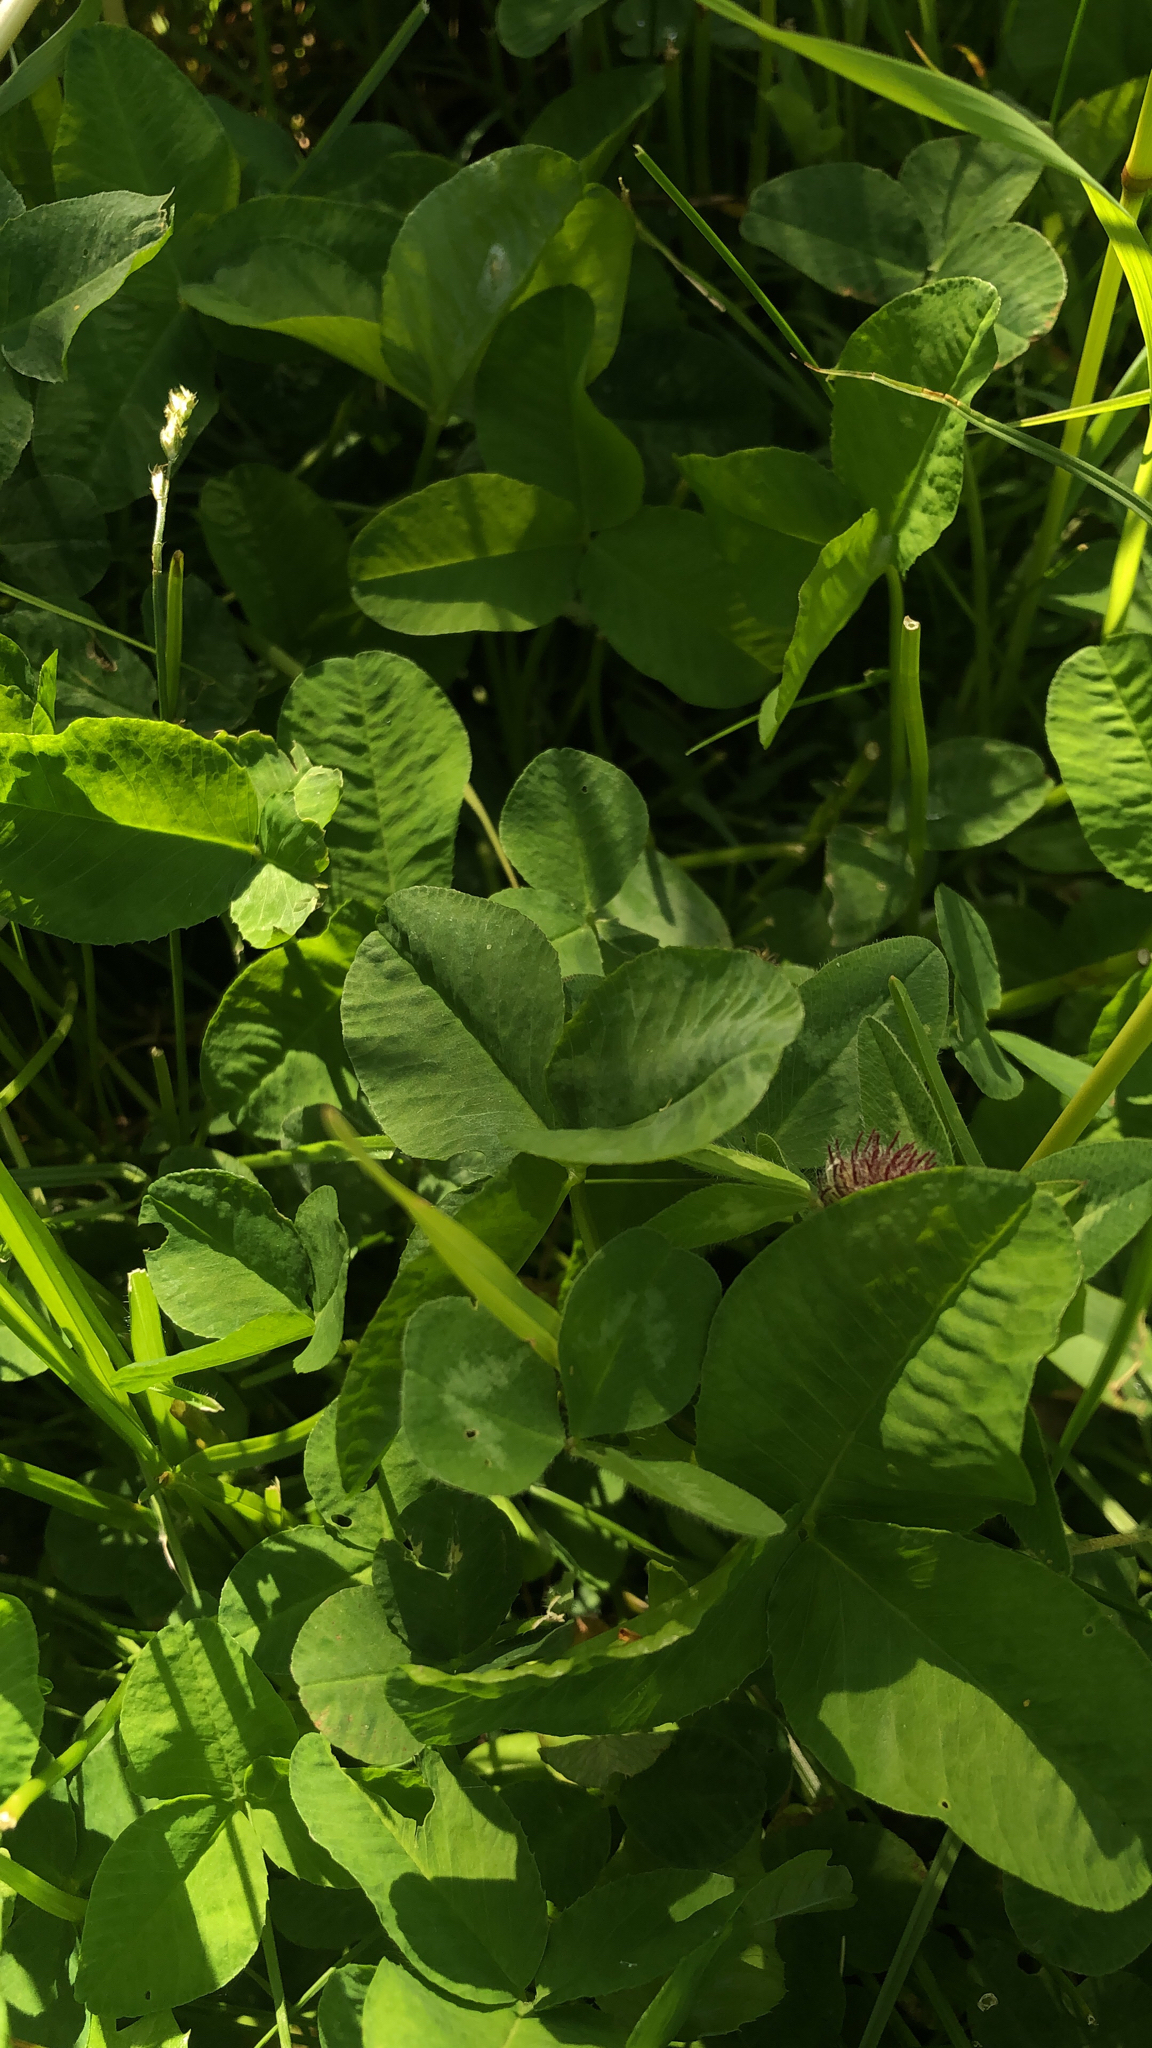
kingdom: Plantae
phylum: Tracheophyta
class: Magnoliopsida
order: Fabales
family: Fabaceae
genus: Trifolium
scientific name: Trifolium repens
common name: White clover
